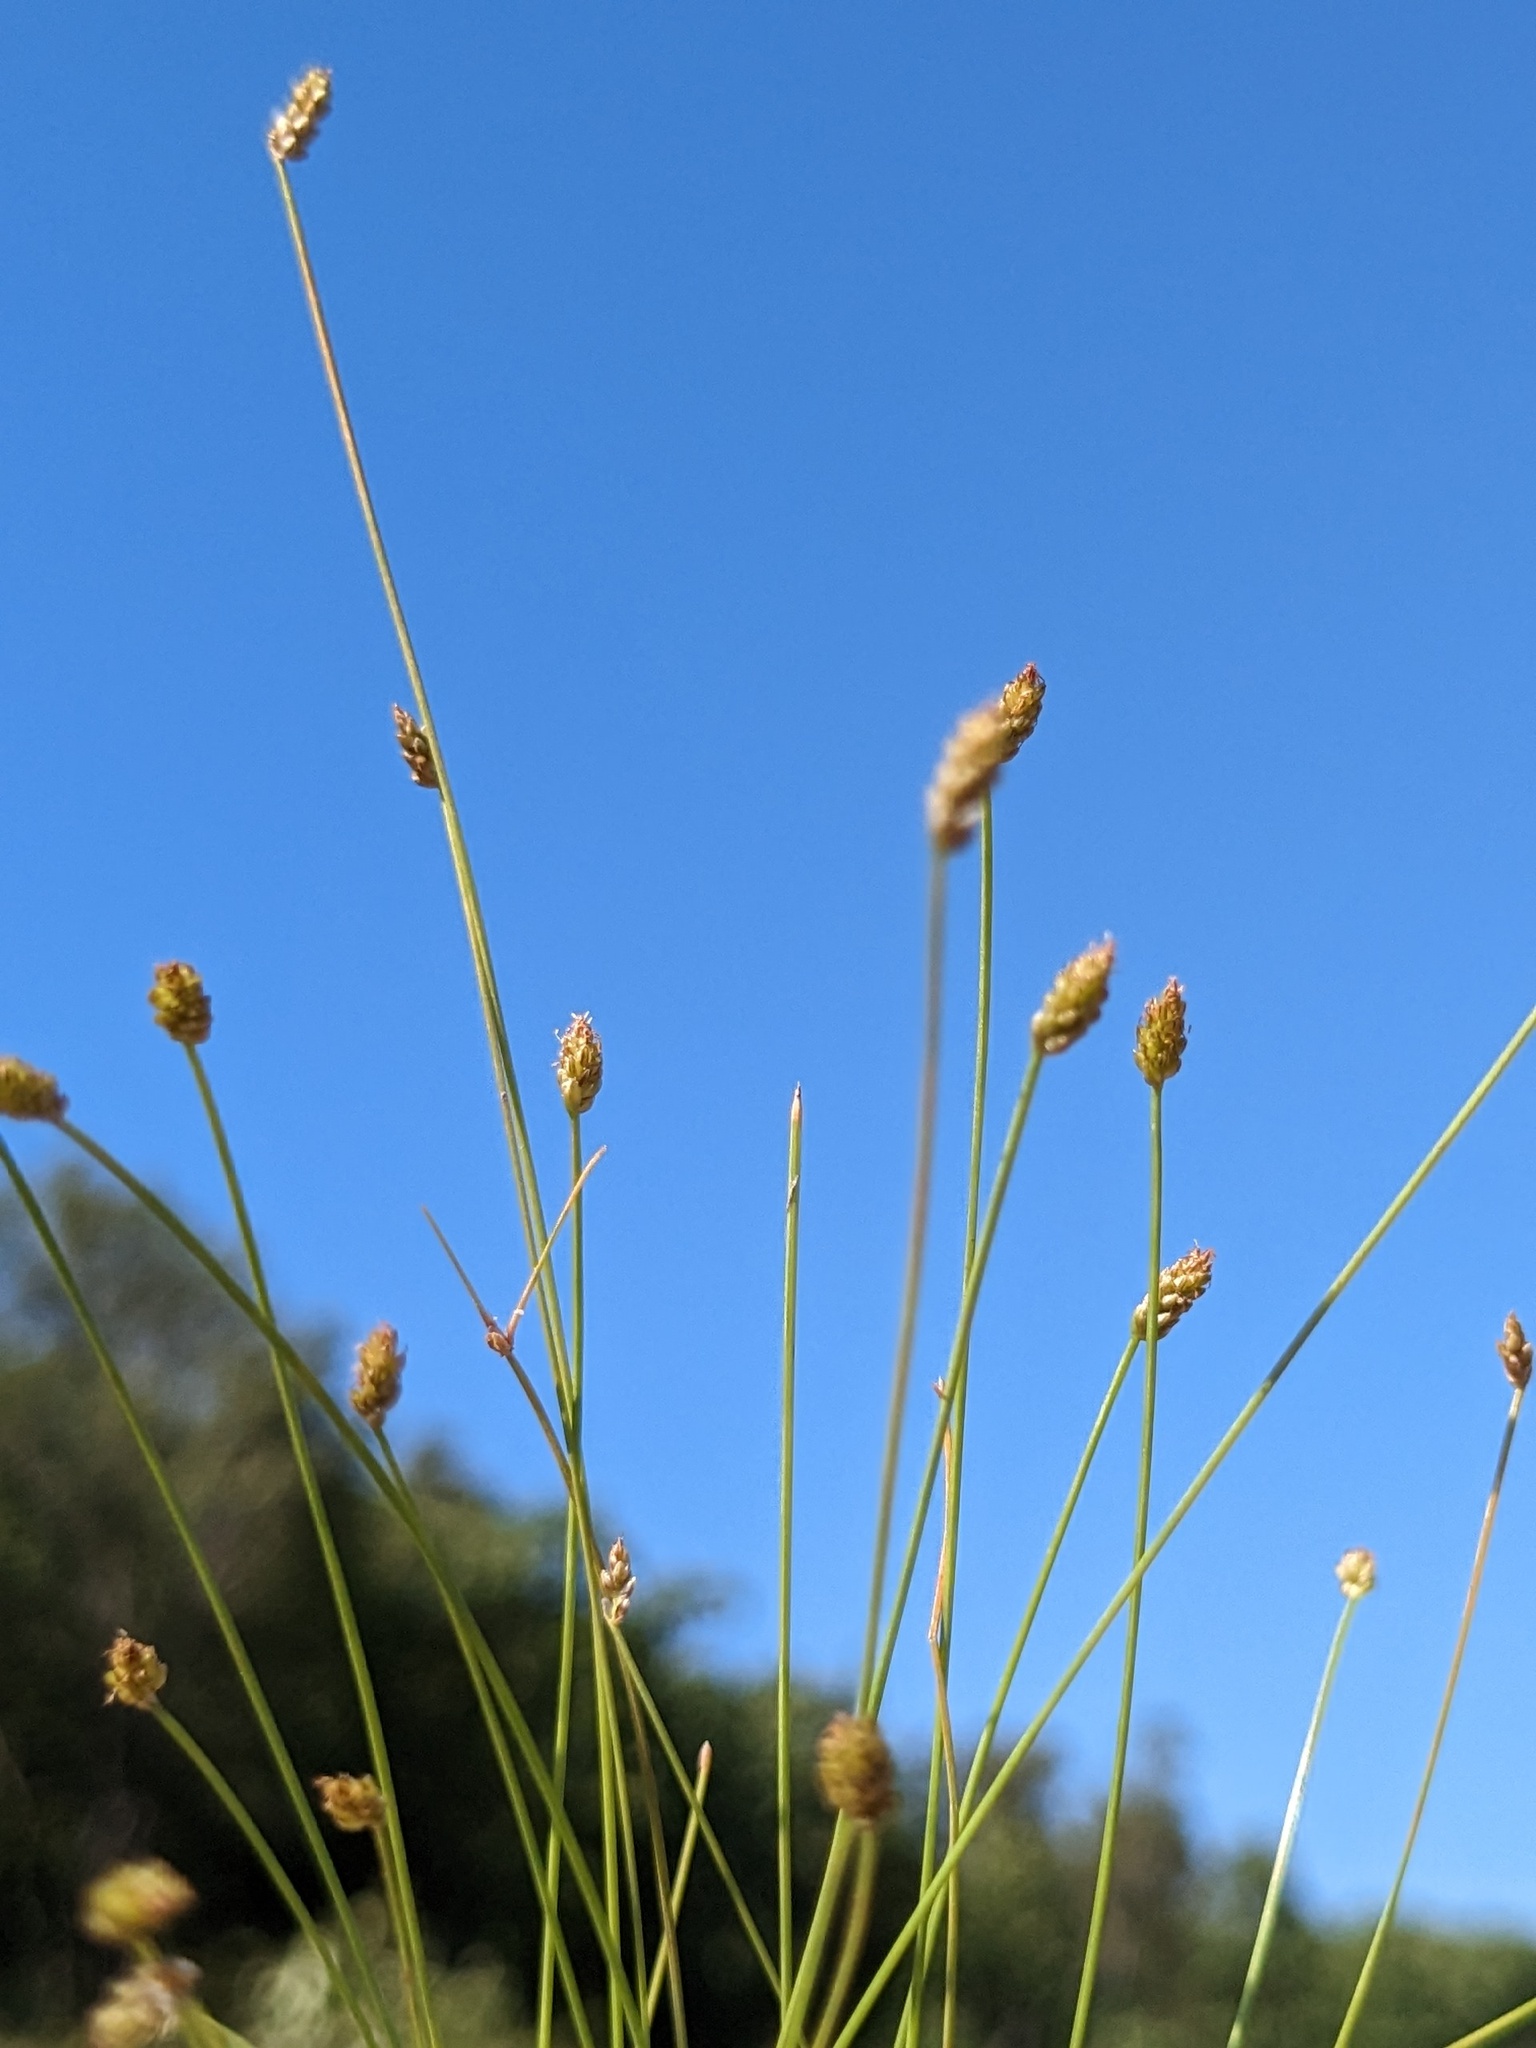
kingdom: Plantae
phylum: Tracheophyta
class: Liliopsida
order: Poales
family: Cyperaceae
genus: Eleocharis
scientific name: Eleocharis maximowiczii
